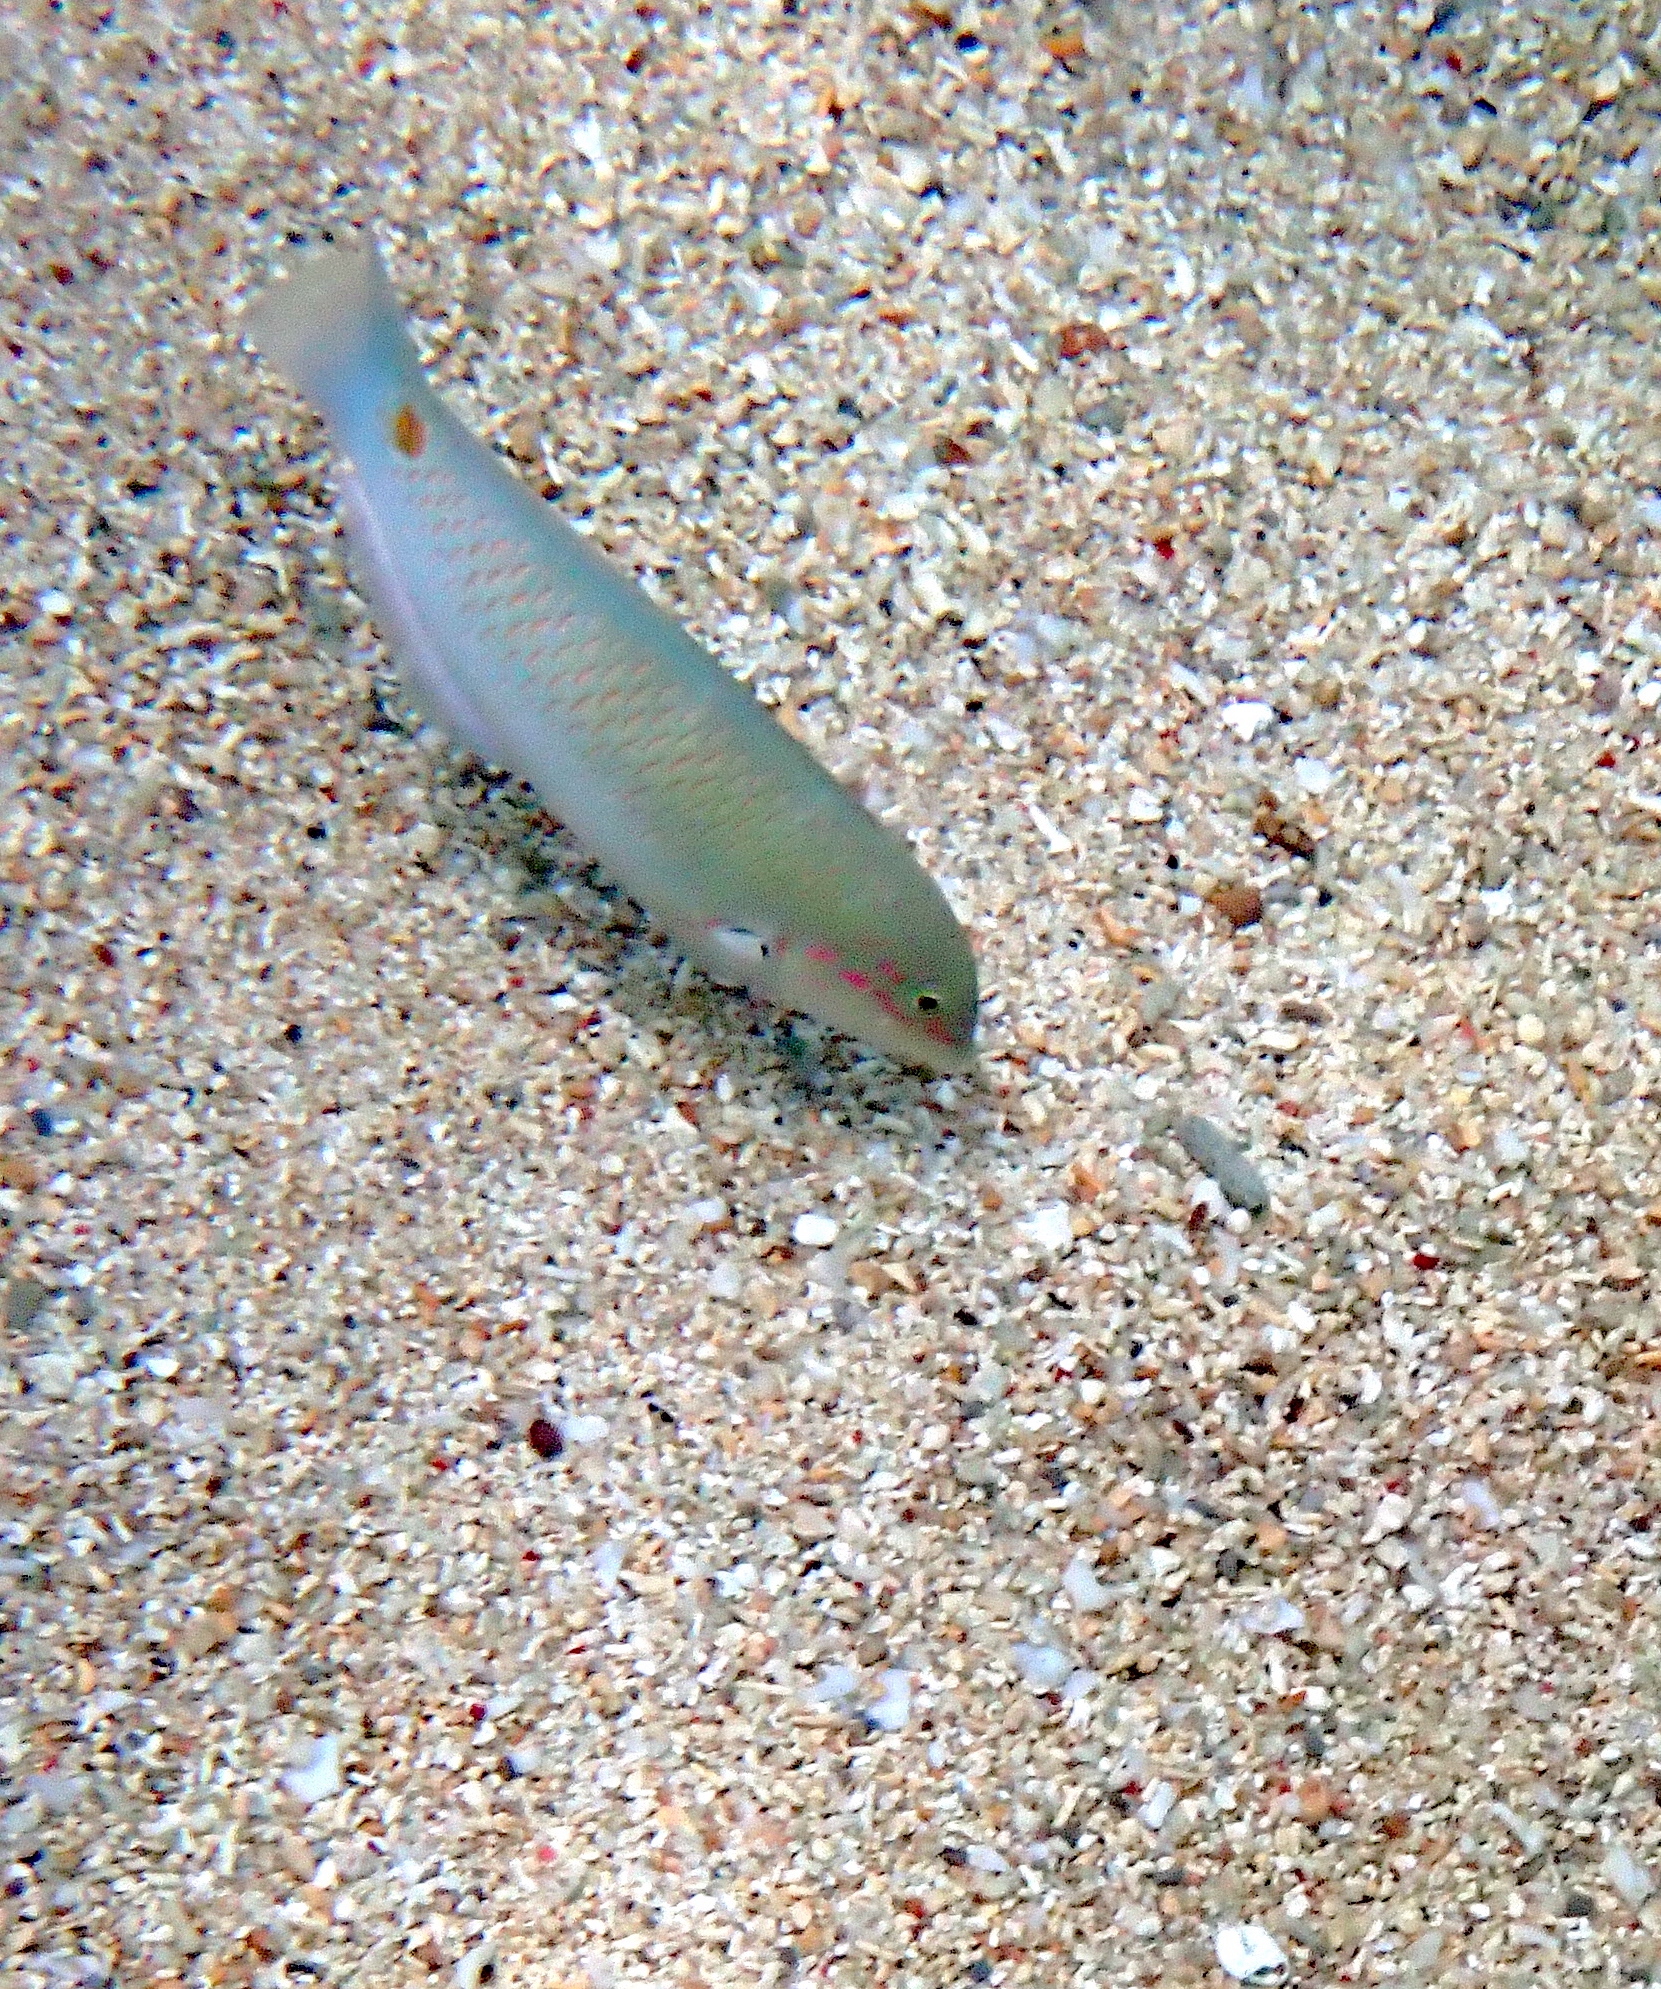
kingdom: Animalia
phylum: Chordata
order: Perciformes
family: Labridae
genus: Halichoeres
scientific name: Halichoeres trimaculatus
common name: Three-spot wrasse
